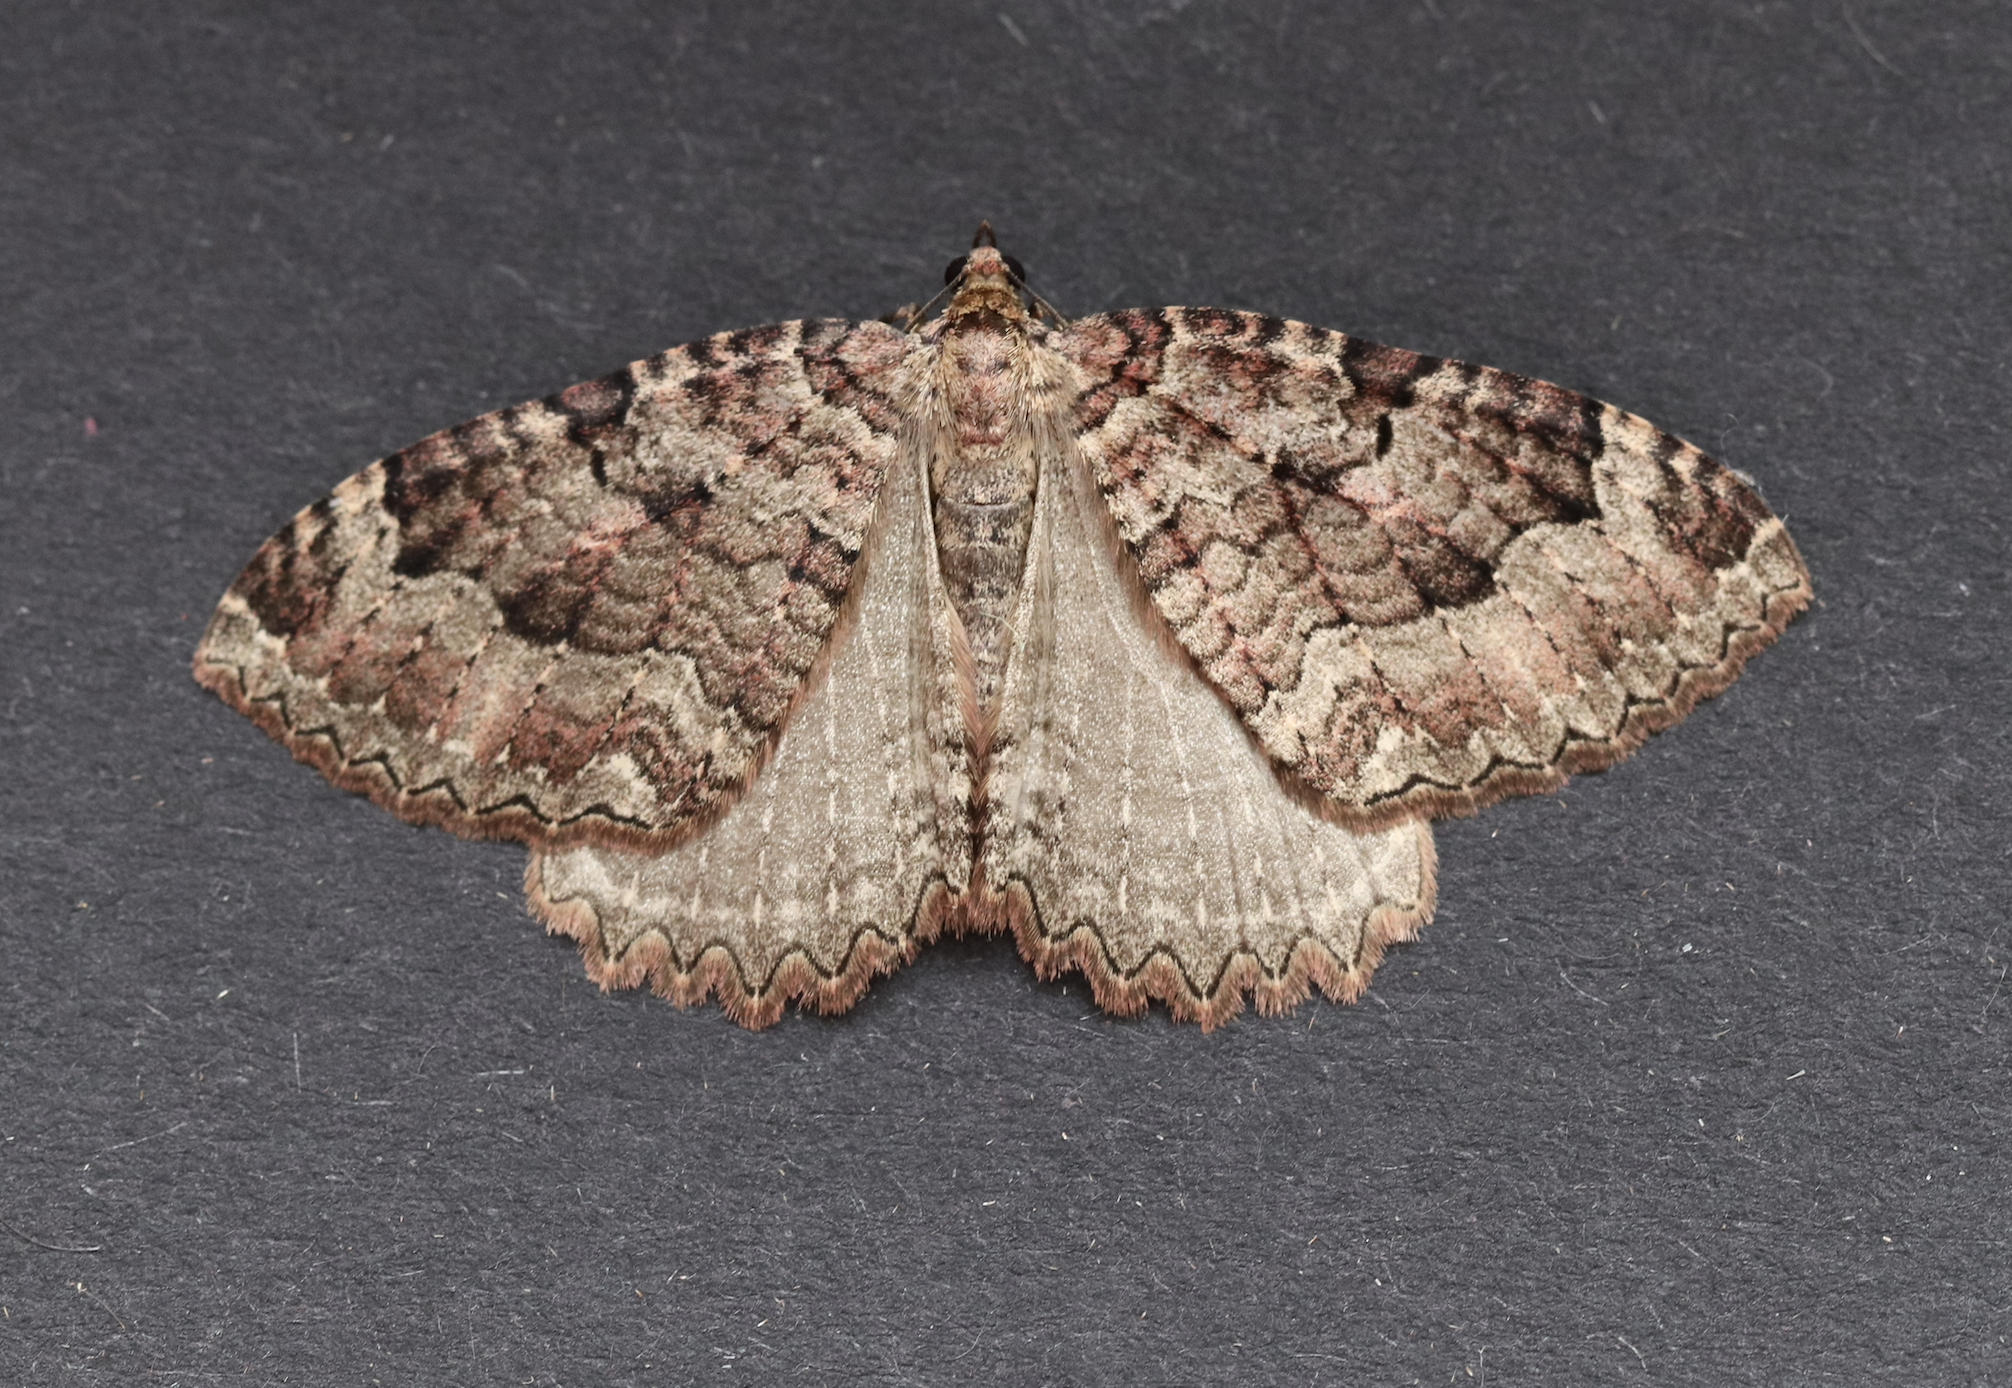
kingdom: Animalia
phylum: Arthropoda
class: Insecta
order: Lepidoptera
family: Geometridae
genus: Triphosa
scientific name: Triphosa dubitata
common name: Tissue
